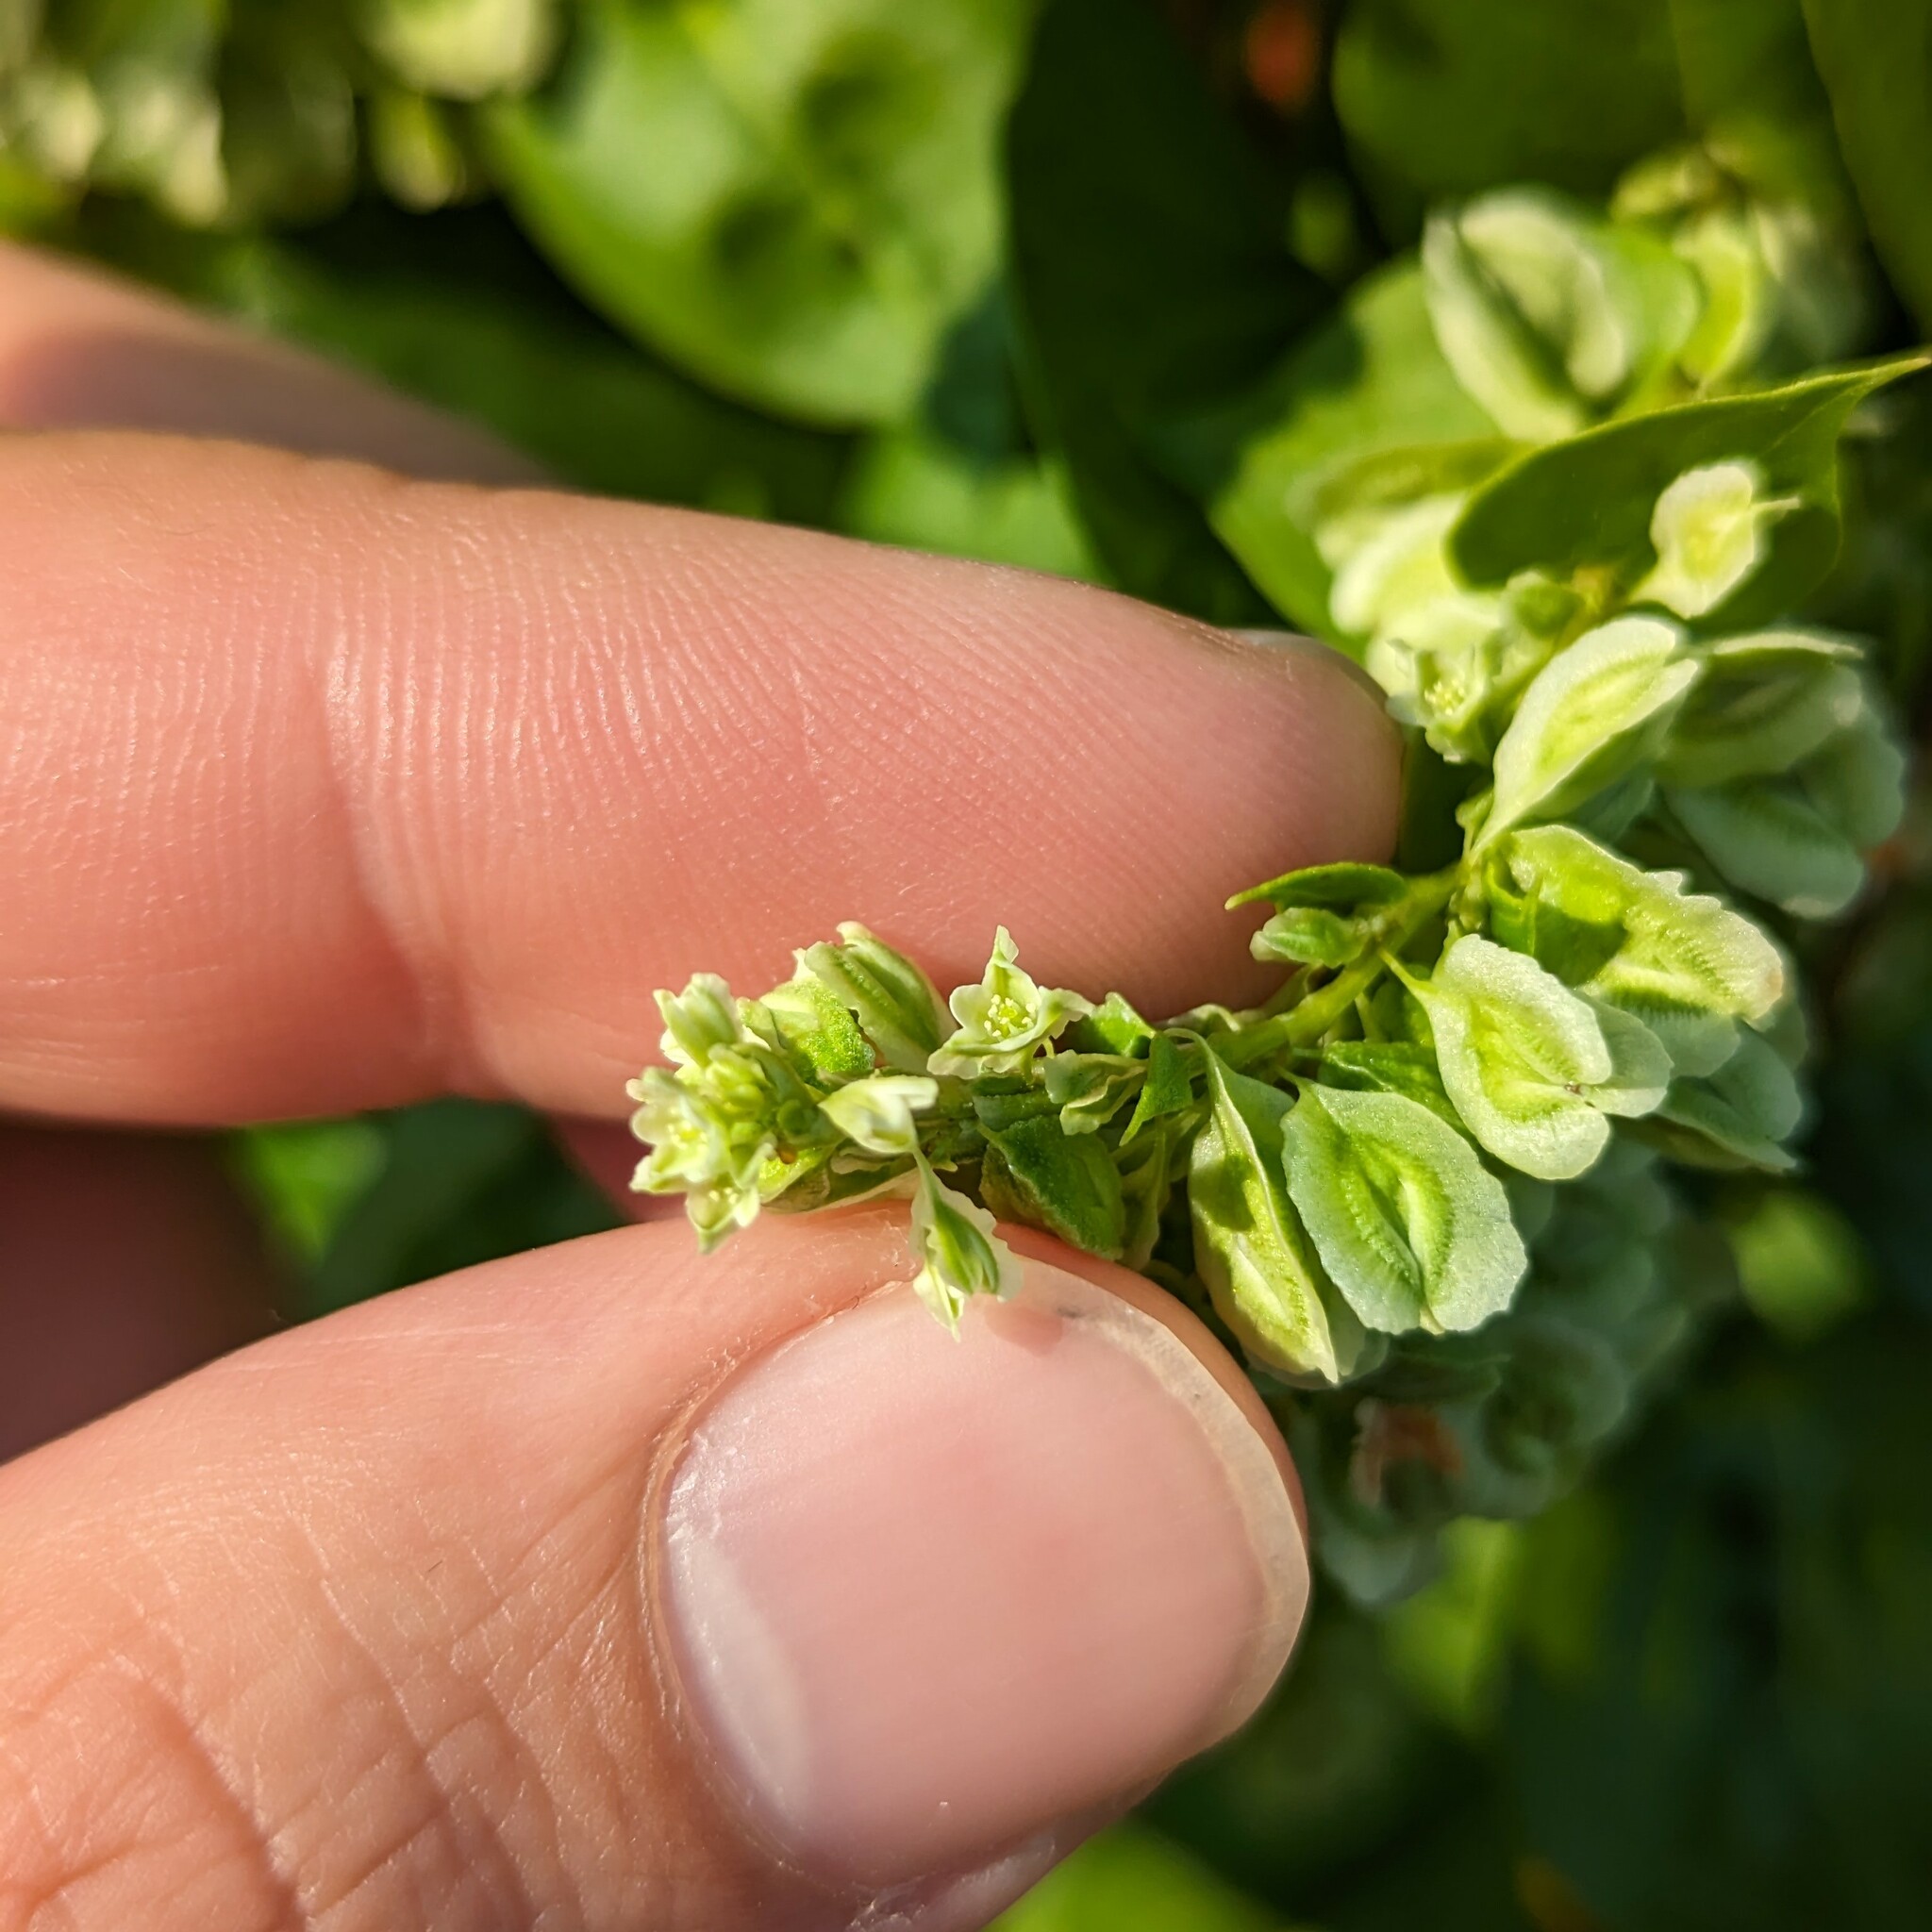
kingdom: Plantae
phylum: Tracheophyta
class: Magnoliopsida
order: Caryophyllales
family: Polygonaceae
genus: Fallopia
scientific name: Fallopia scandens
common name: Climbing false buckwheat
